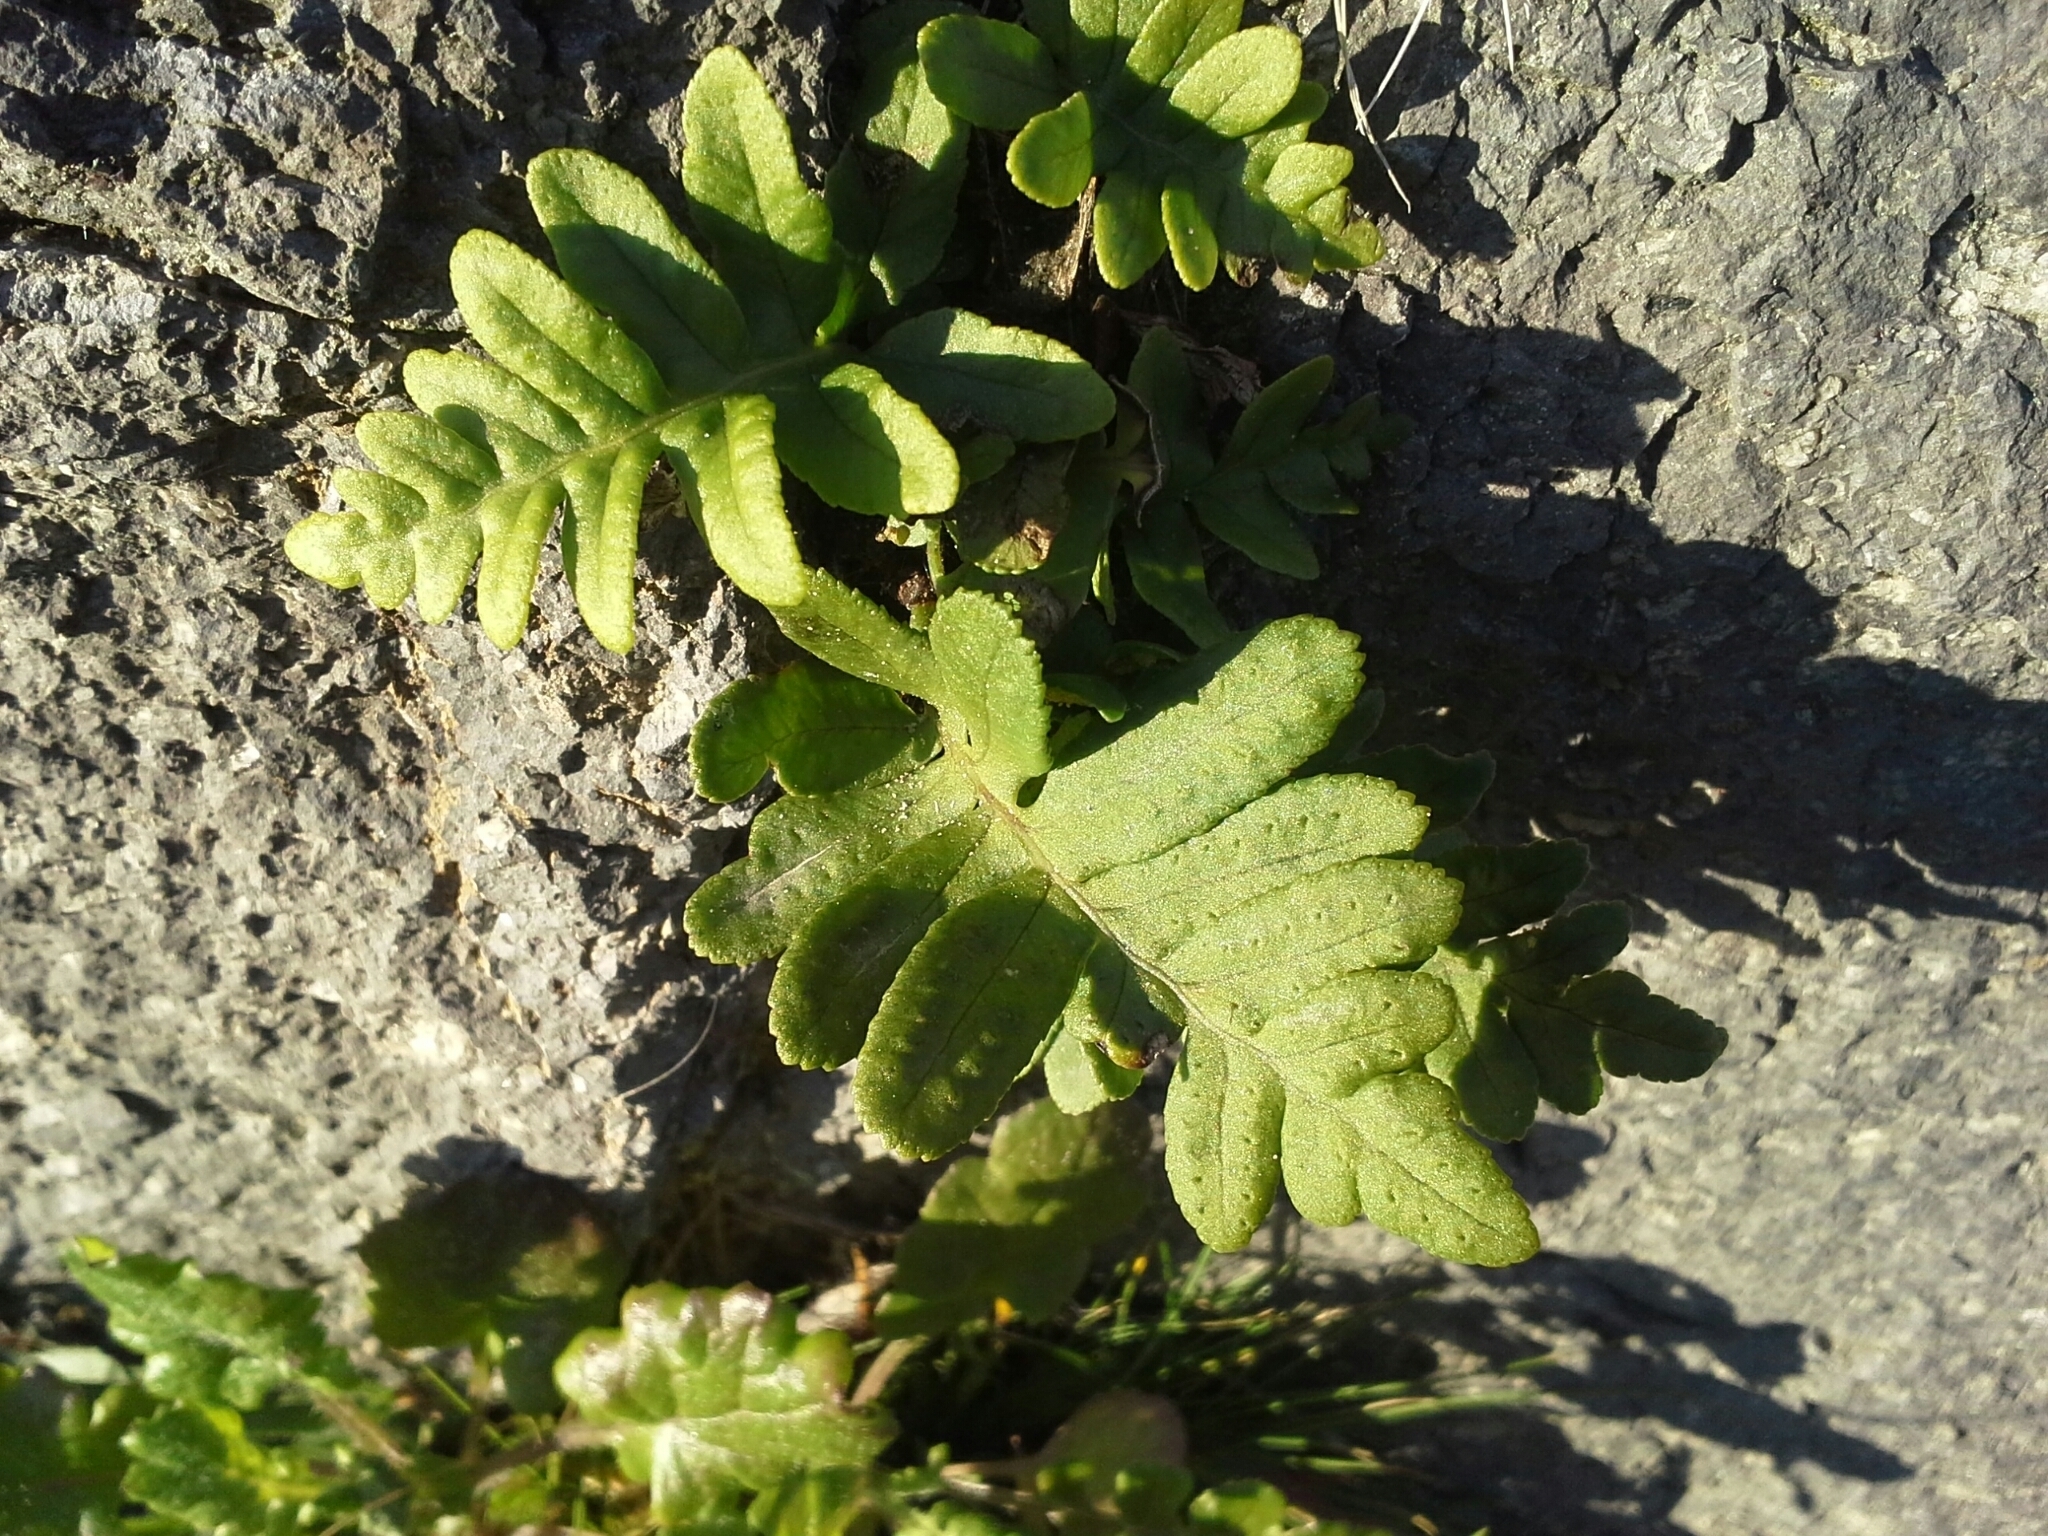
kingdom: Plantae
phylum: Tracheophyta
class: Polypodiopsida
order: Polypodiales
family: Polypodiaceae
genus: Polypodium
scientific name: Polypodium vulgare
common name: Common polypody
